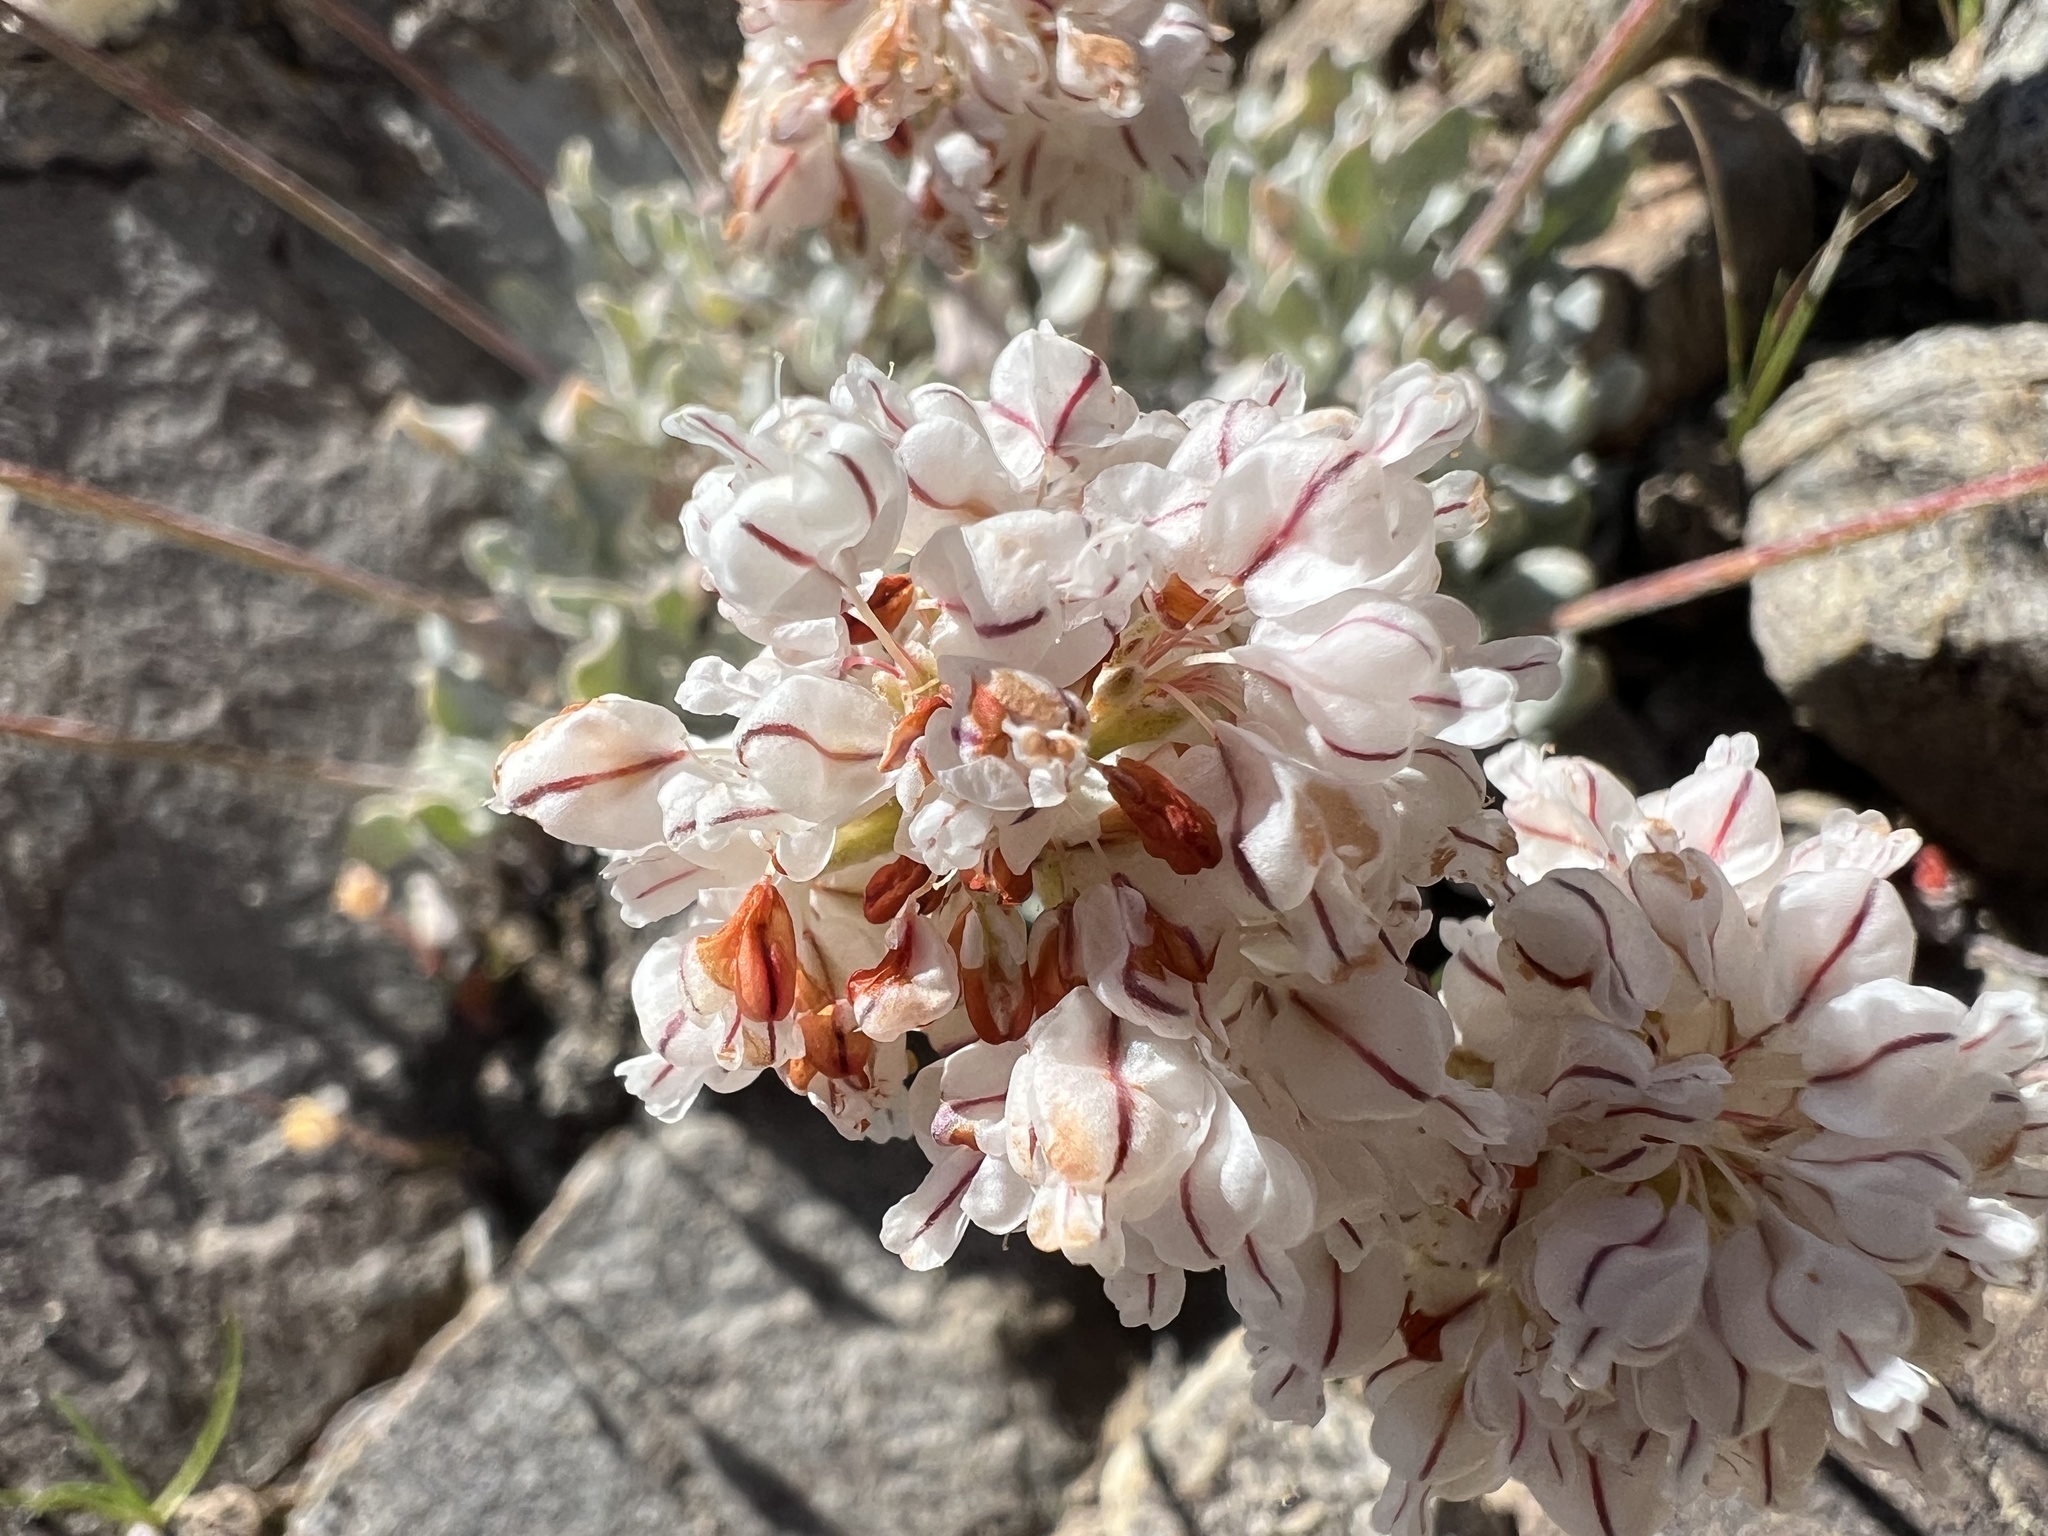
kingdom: Plantae
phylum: Tracheophyta
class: Magnoliopsida
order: Caryophyllales
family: Polygonaceae
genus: Eriogonum
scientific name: Eriogonum ovalifolium
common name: Cushion buckwheat
